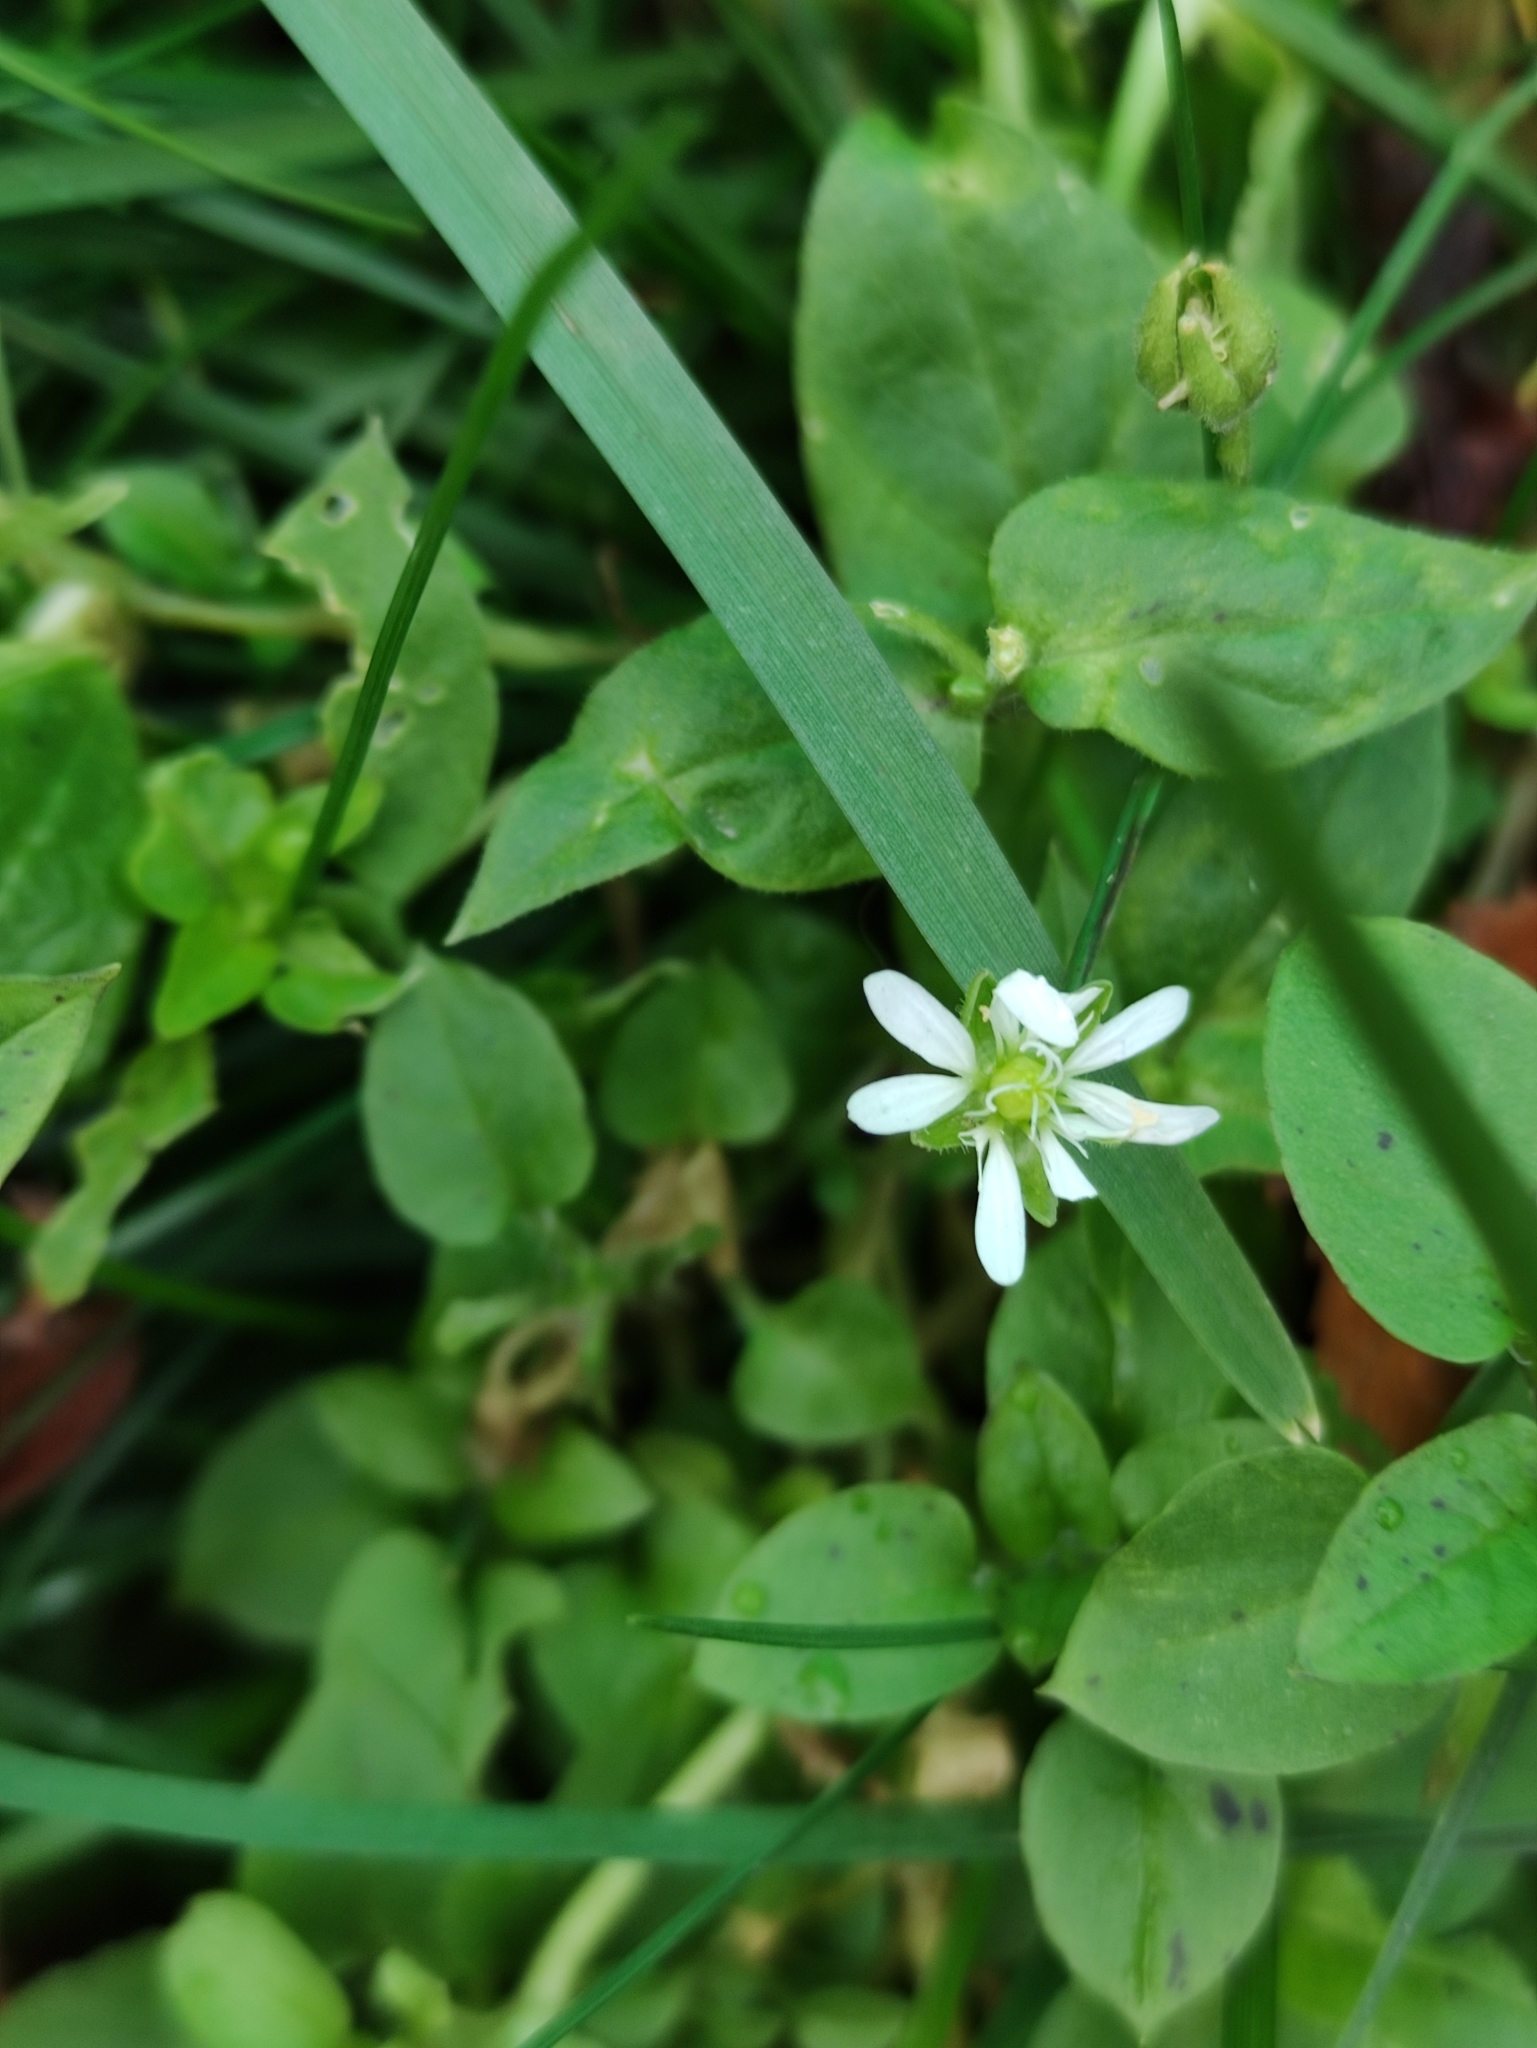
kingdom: Plantae
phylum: Tracheophyta
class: Magnoliopsida
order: Caryophyllales
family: Caryophyllaceae
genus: Stellaria
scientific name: Stellaria aquatica
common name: Water chickweed
